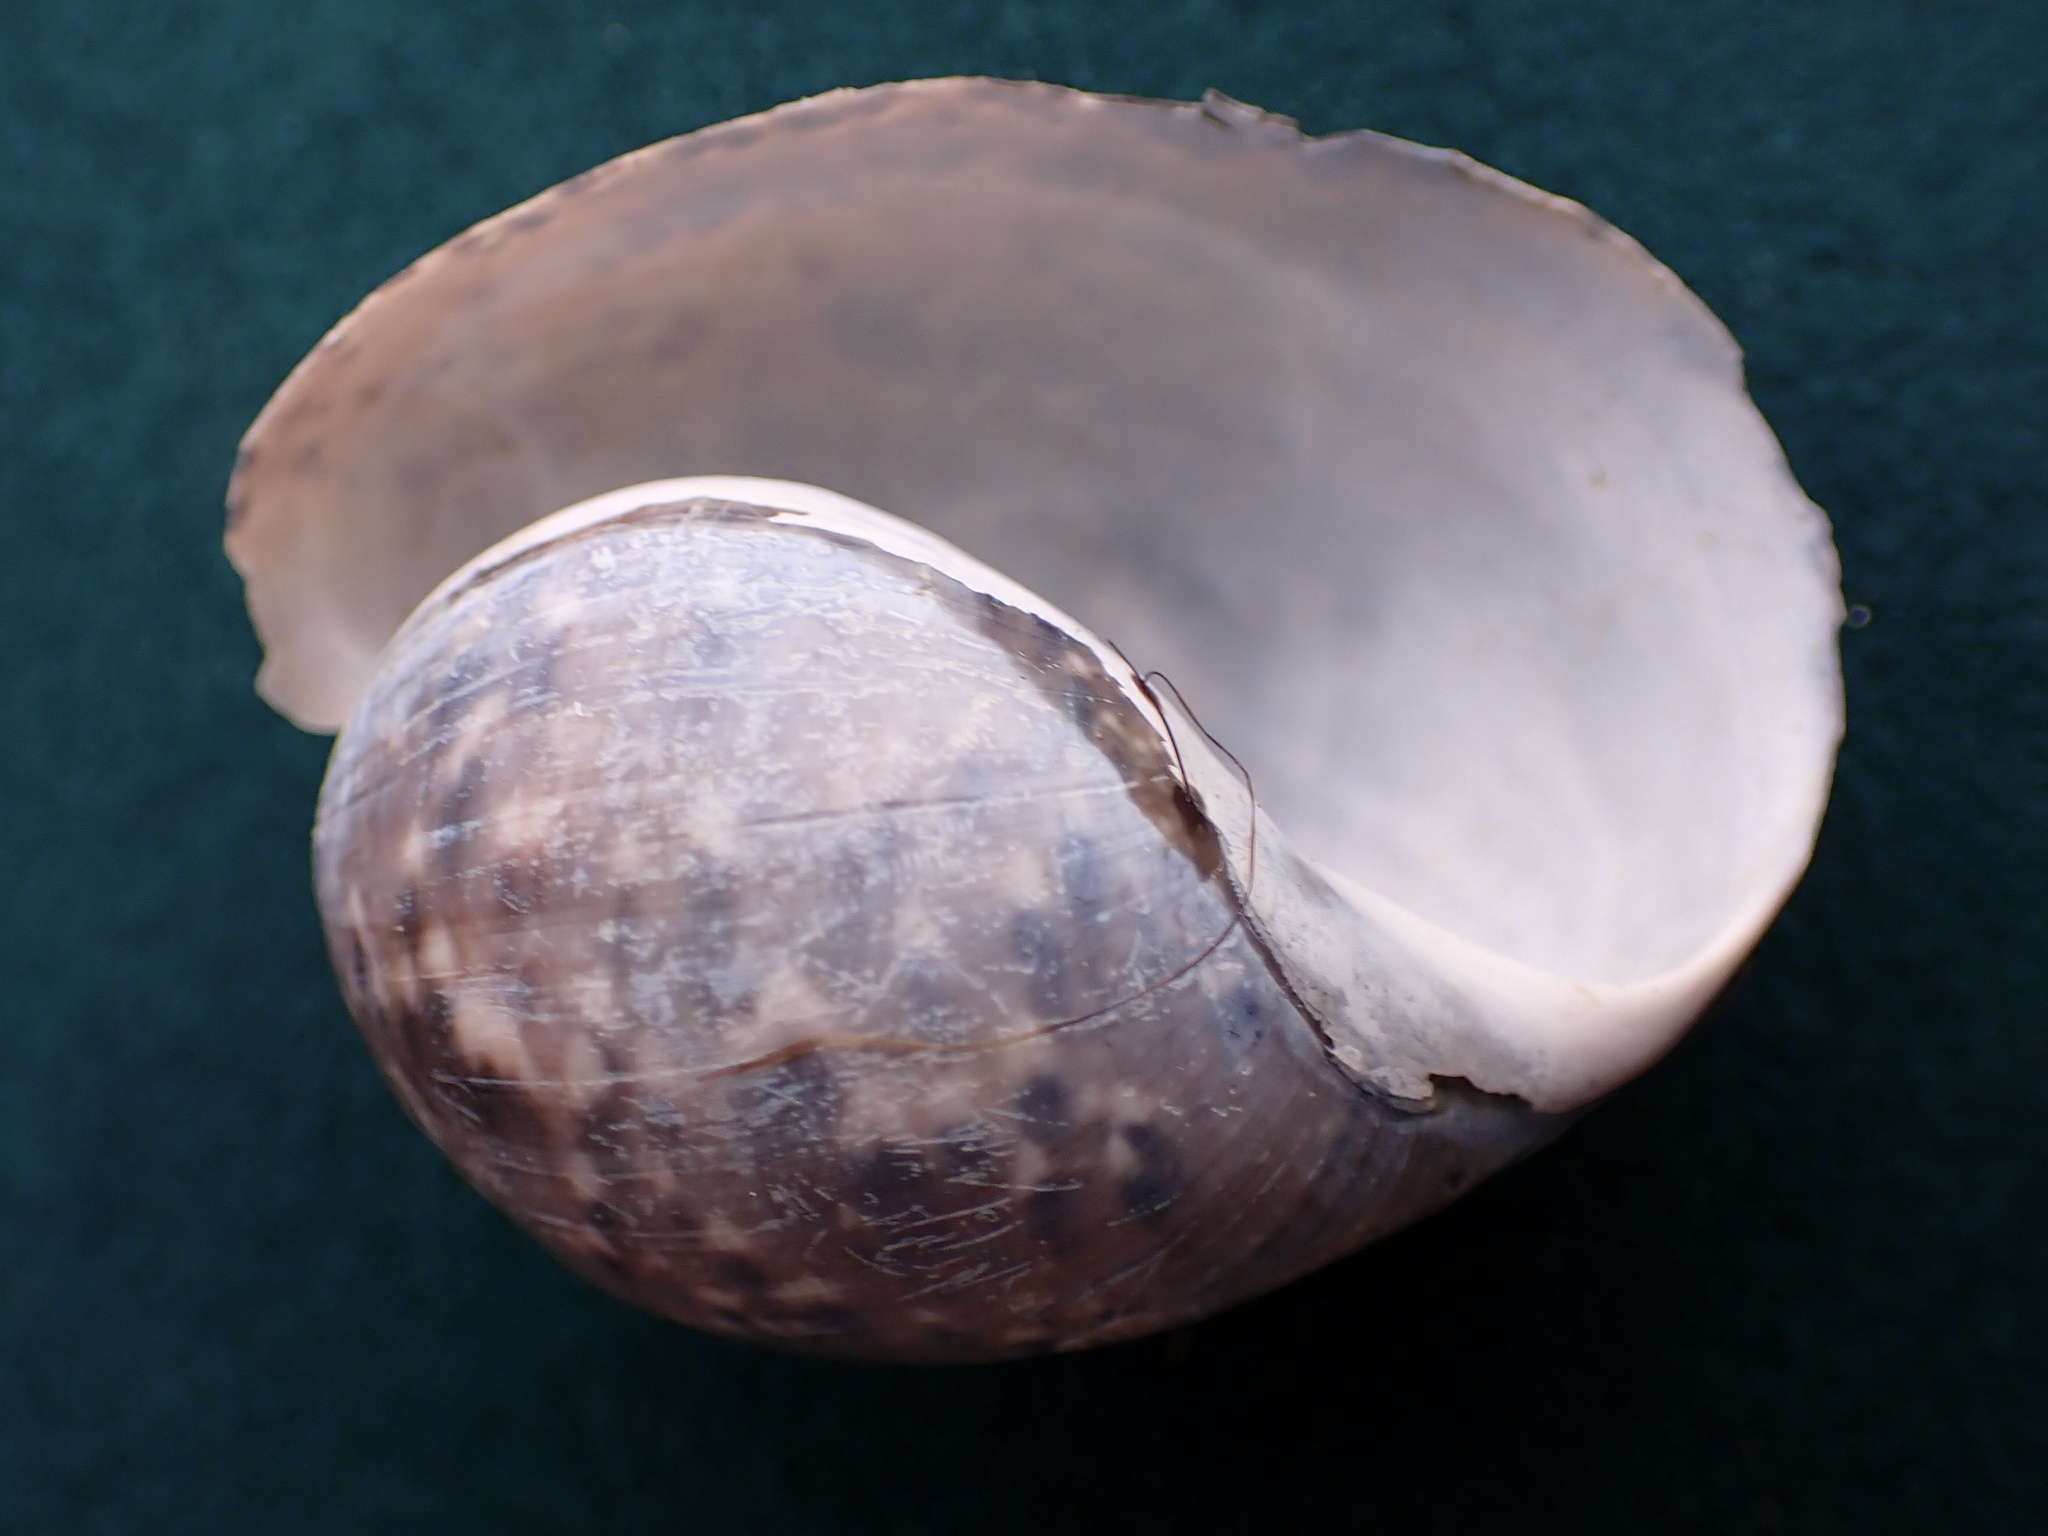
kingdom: Animalia
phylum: Mollusca
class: Gastropoda
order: Cephalaspidea
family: Bullidae
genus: Bulla
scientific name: Bulla gouldiana
